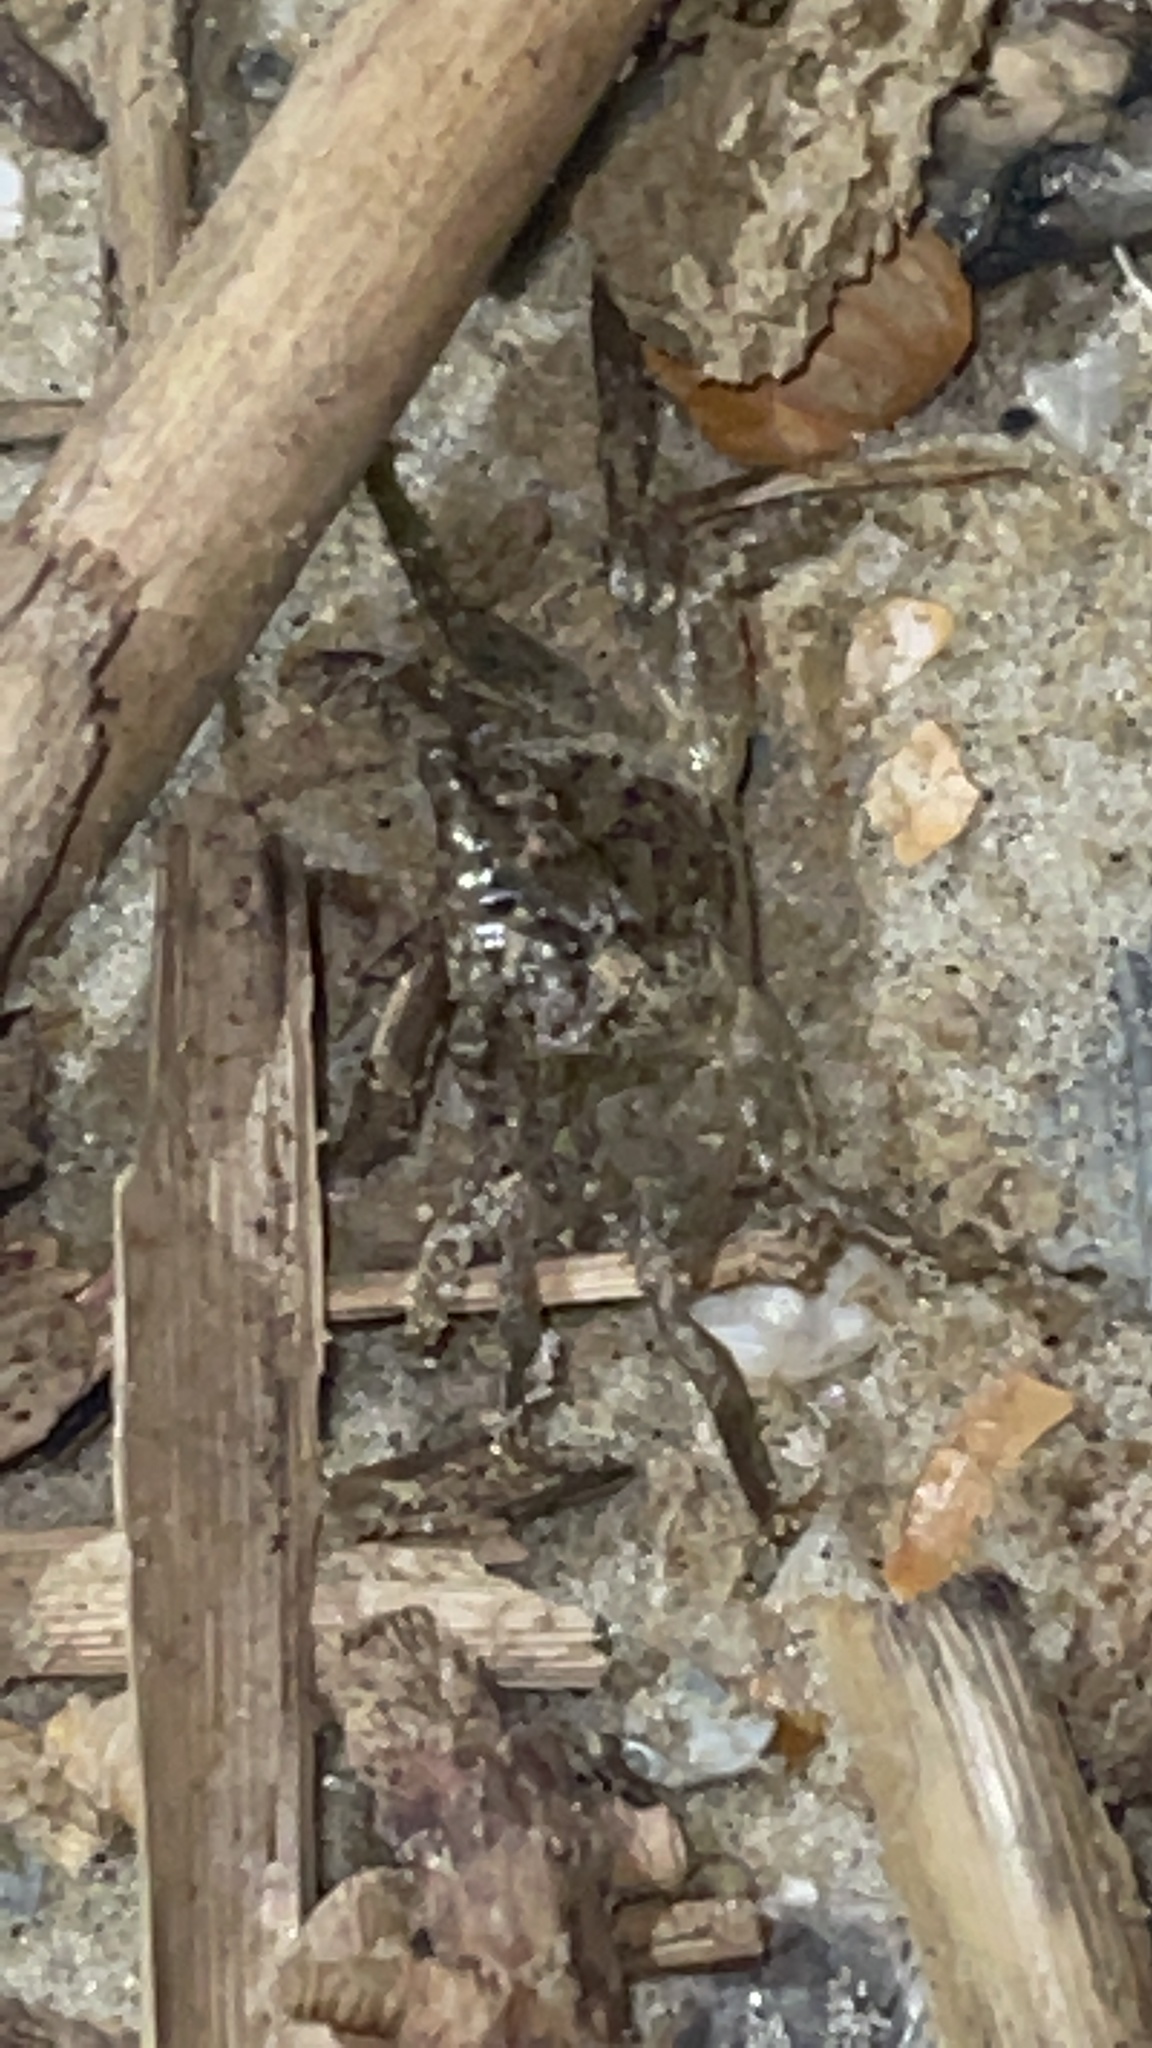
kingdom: Animalia
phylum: Arthropoda
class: Malacostraca
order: Decapoda
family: Sesarmidae
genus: Armases
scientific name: Armases cinereum
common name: Squareback marsh crab
